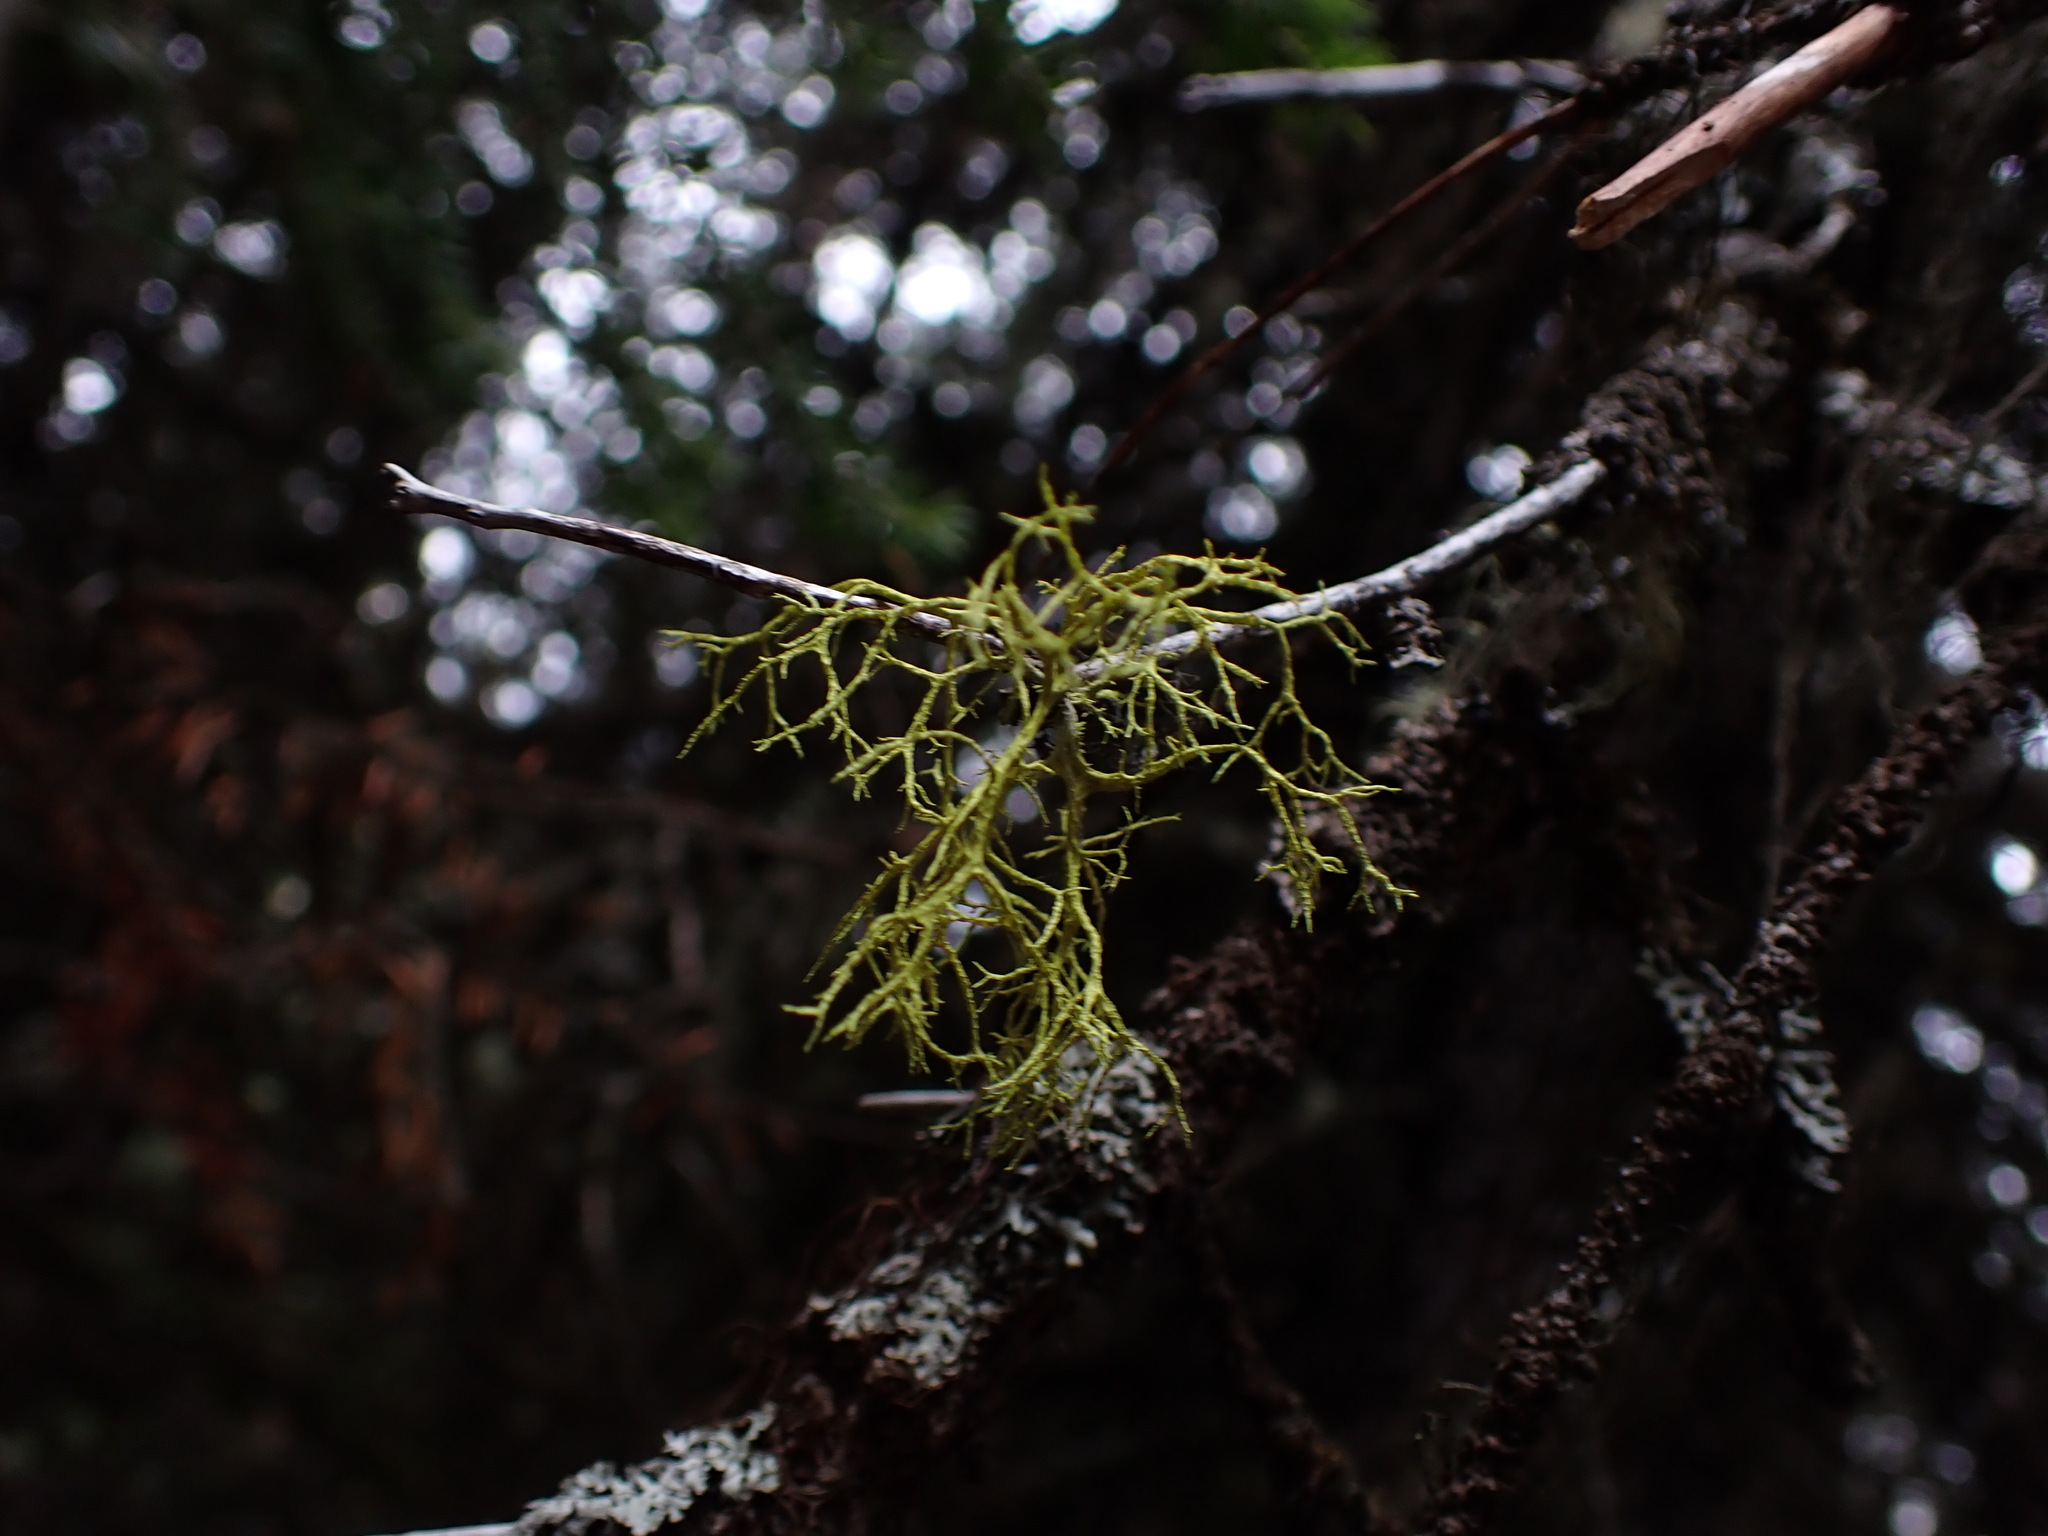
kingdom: Fungi
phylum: Ascomycota
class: Lecanoromycetes
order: Lecanorales
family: Parmeliaceae
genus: Letharia
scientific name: Letharia vulpina
